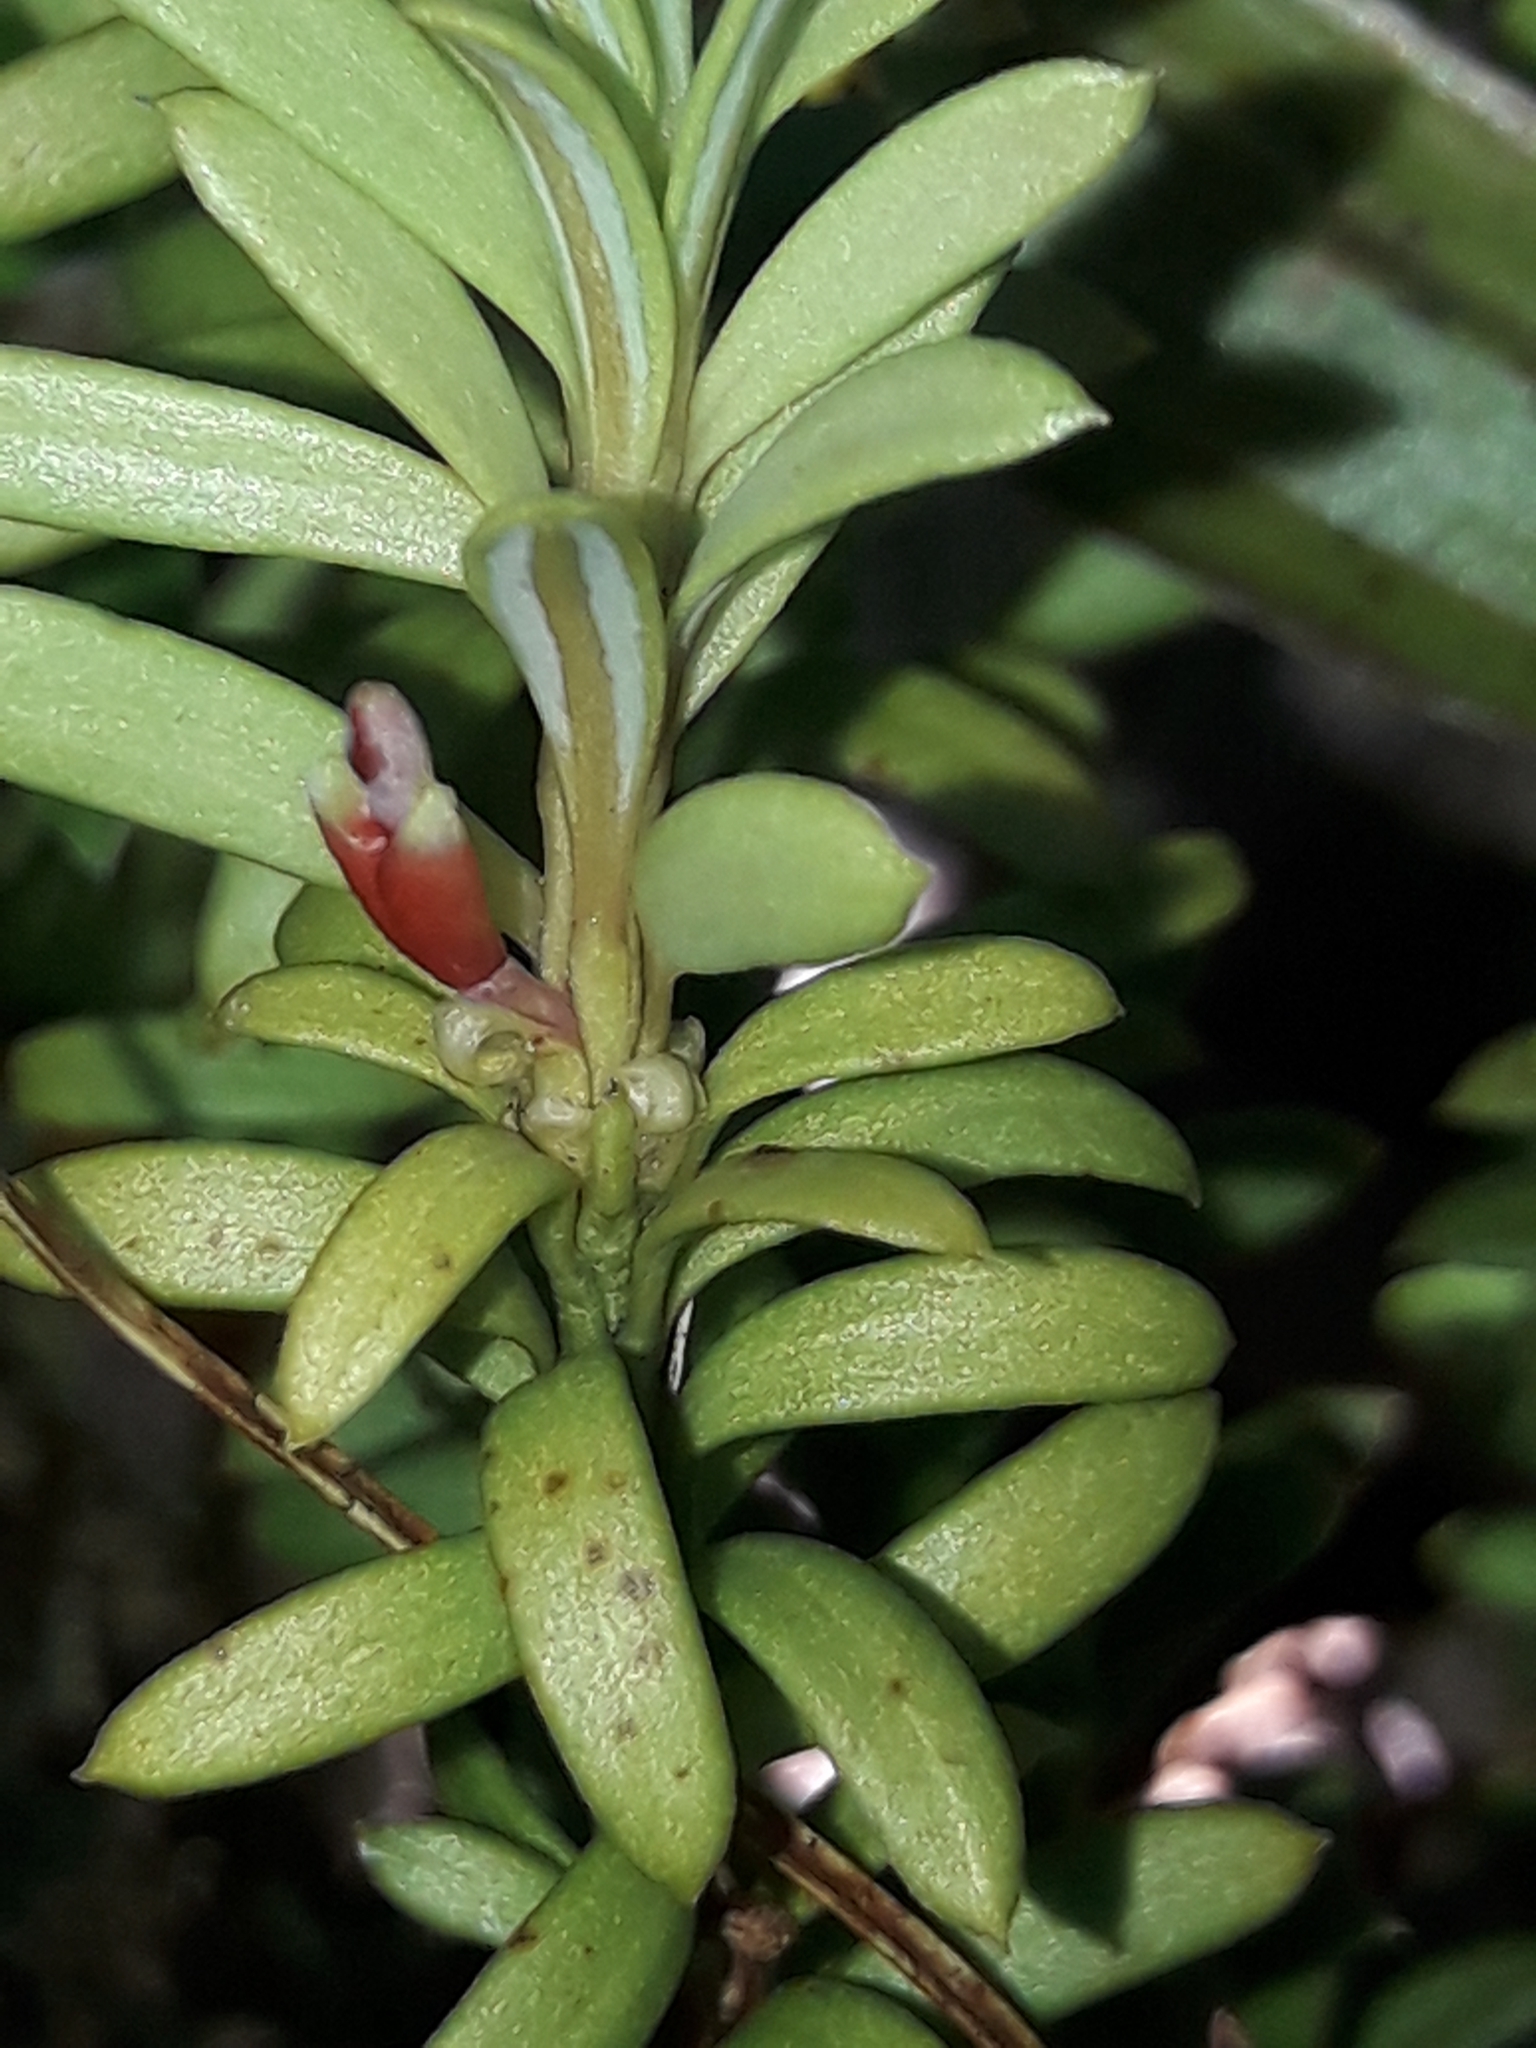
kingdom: Plantae
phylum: Tracheophyta
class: Pinopsida
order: Pinales
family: Podocarpaceae
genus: Podocarpus
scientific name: Podocarpus nivalis
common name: Alpine totara
